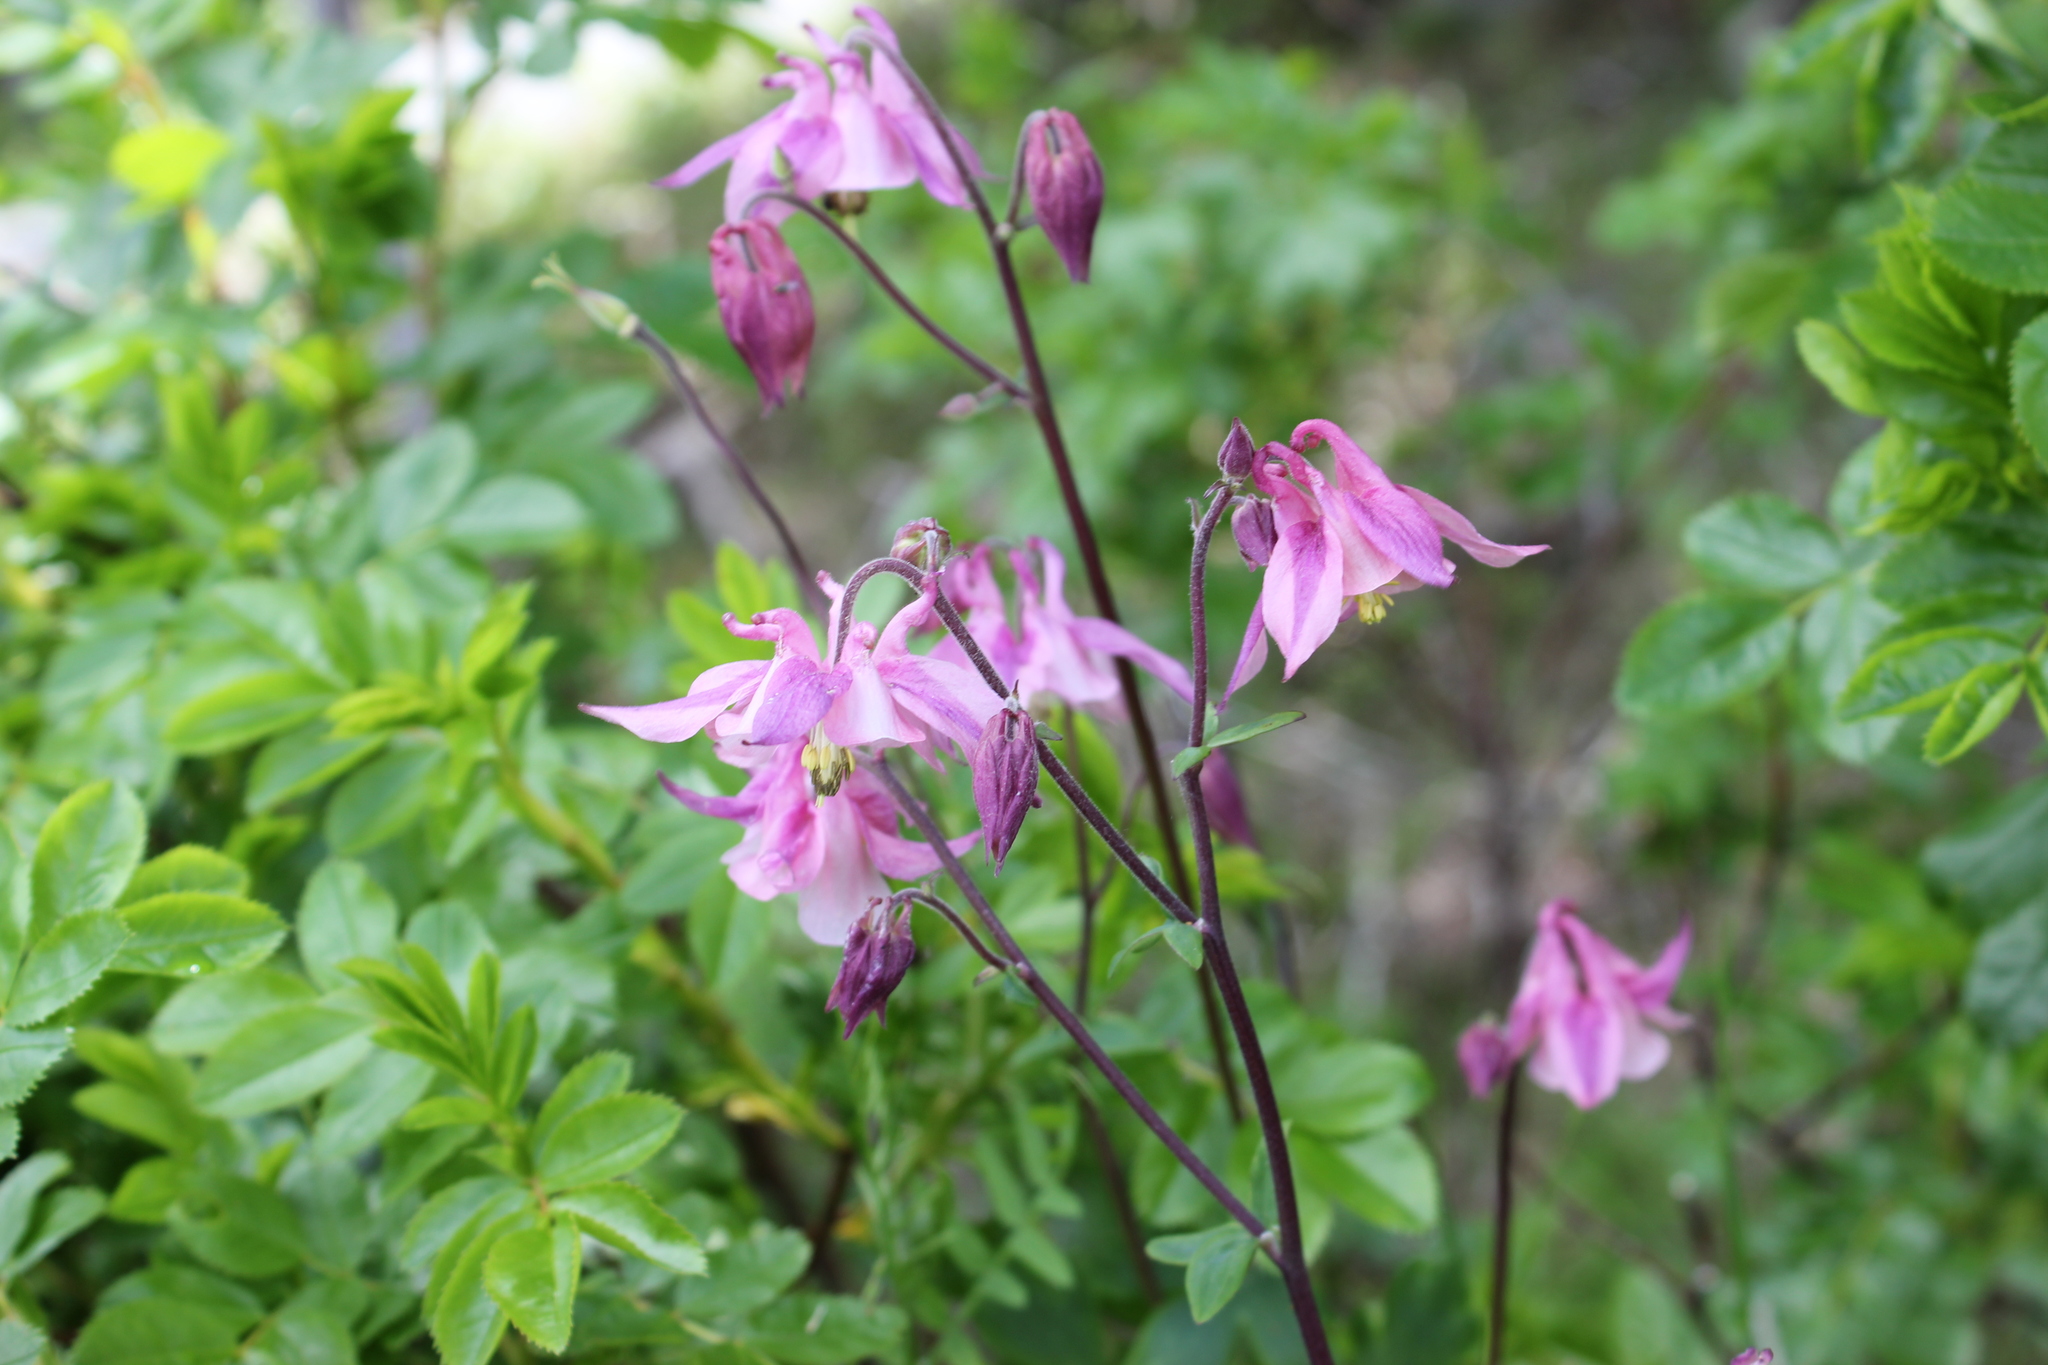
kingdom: Plantae
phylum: Tracheophyta
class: Magnoliopsida
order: Ranunculales
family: Ranunculaceae
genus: Aquilegia
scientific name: Aquilegia vulgaris
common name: Columbine
